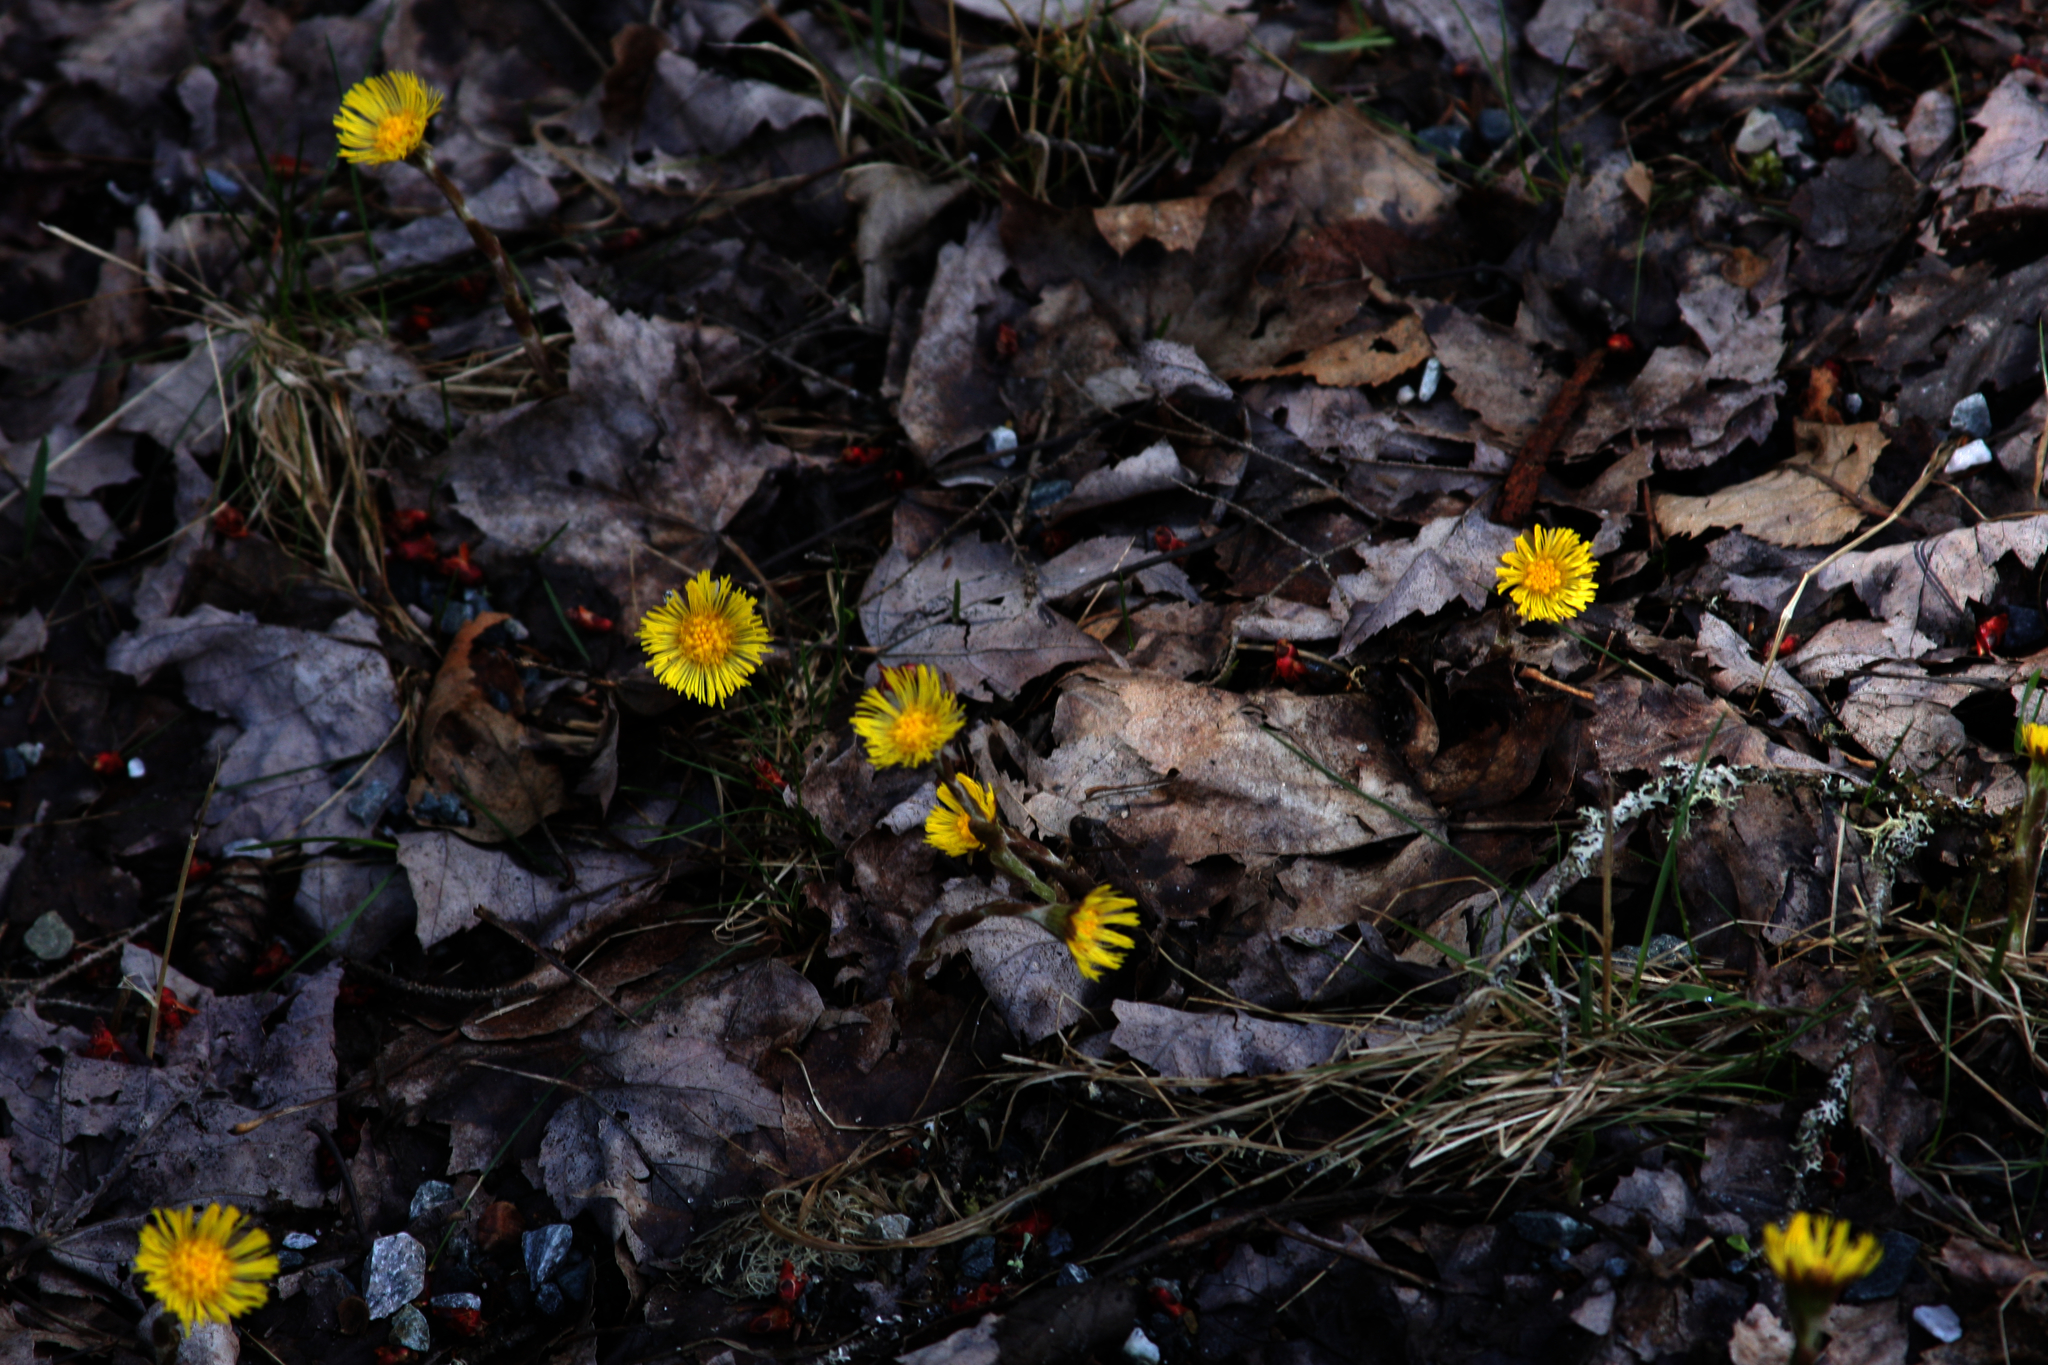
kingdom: Plantae
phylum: Tracheophyta
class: Magnoliopsida
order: Asterales
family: Asteraceae
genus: Tussilago
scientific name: Tussilago farfara
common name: Coltsfoot
